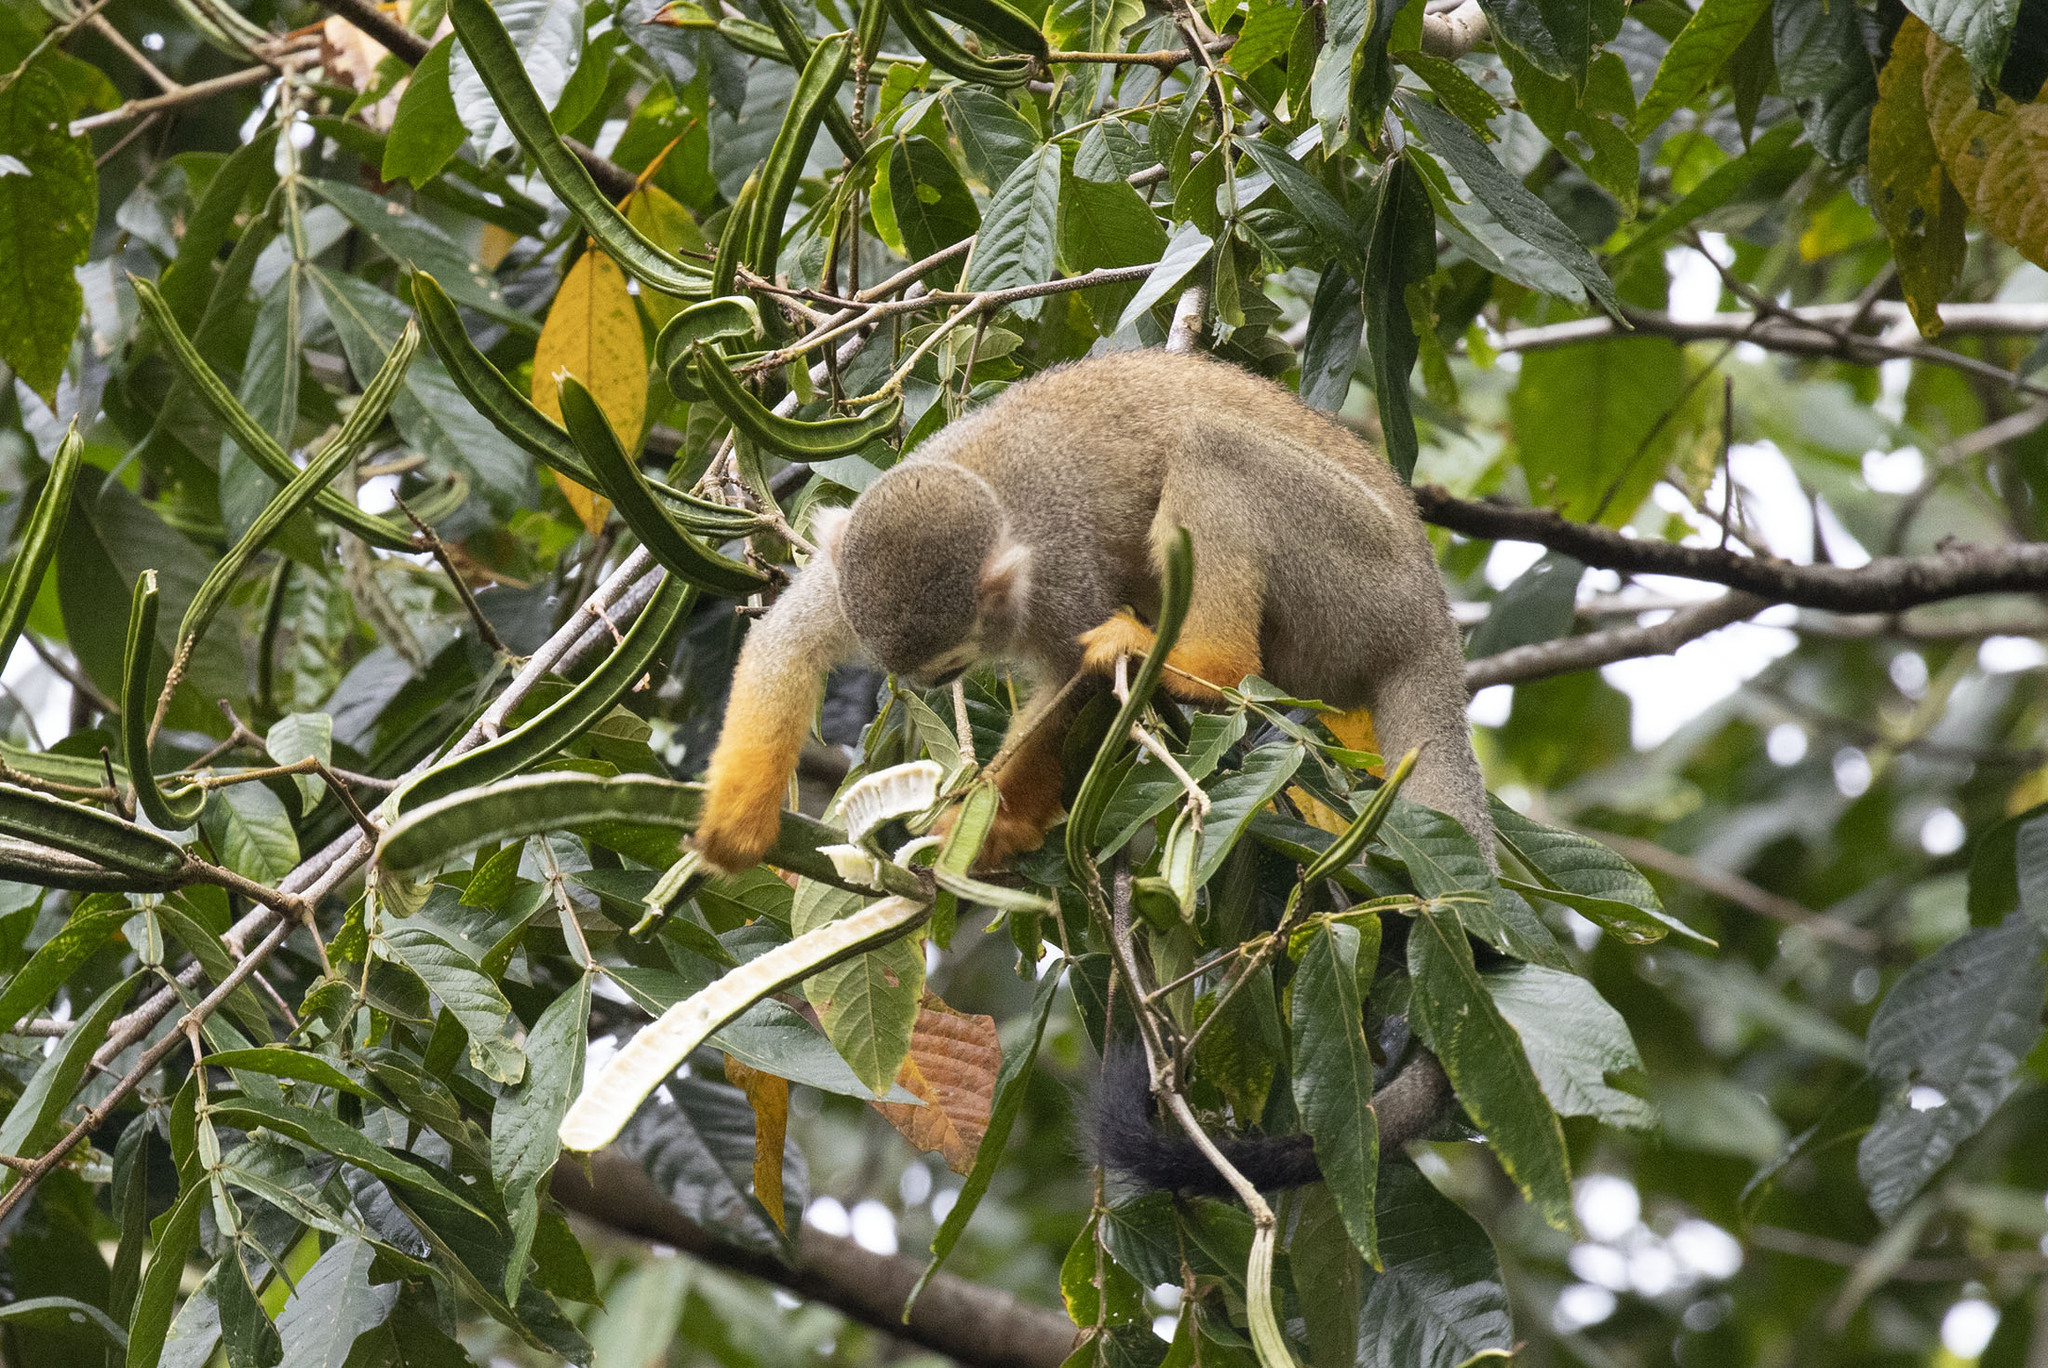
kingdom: Animalia
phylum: Chordata
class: Mammalia
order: Primates
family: Cebidae
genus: Saimiri
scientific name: Saimiri sciureus
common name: Common squirrel monkey
